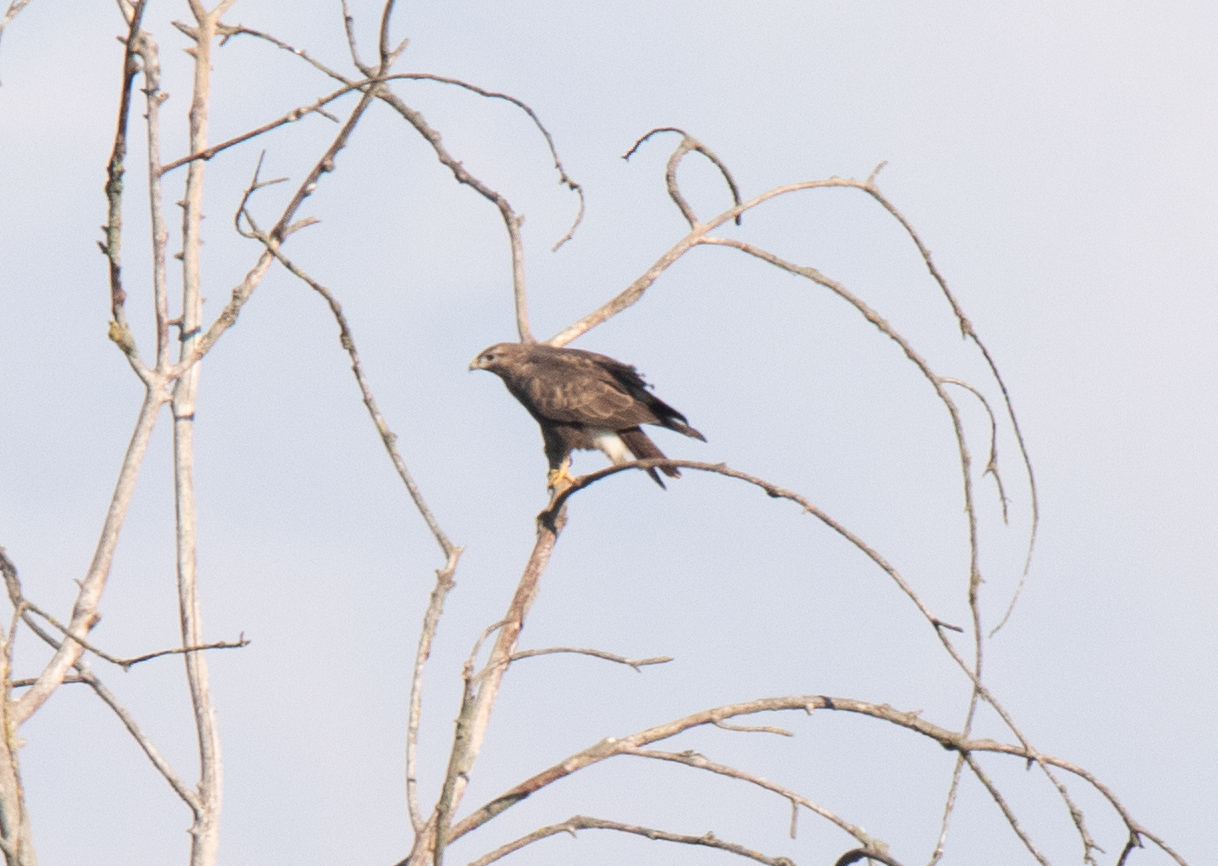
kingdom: Animalia
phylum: Chordata
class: Aves
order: Accipitriformes
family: Accipitridae
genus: Buteo
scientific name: Buteo buteo
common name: Common buzzard
